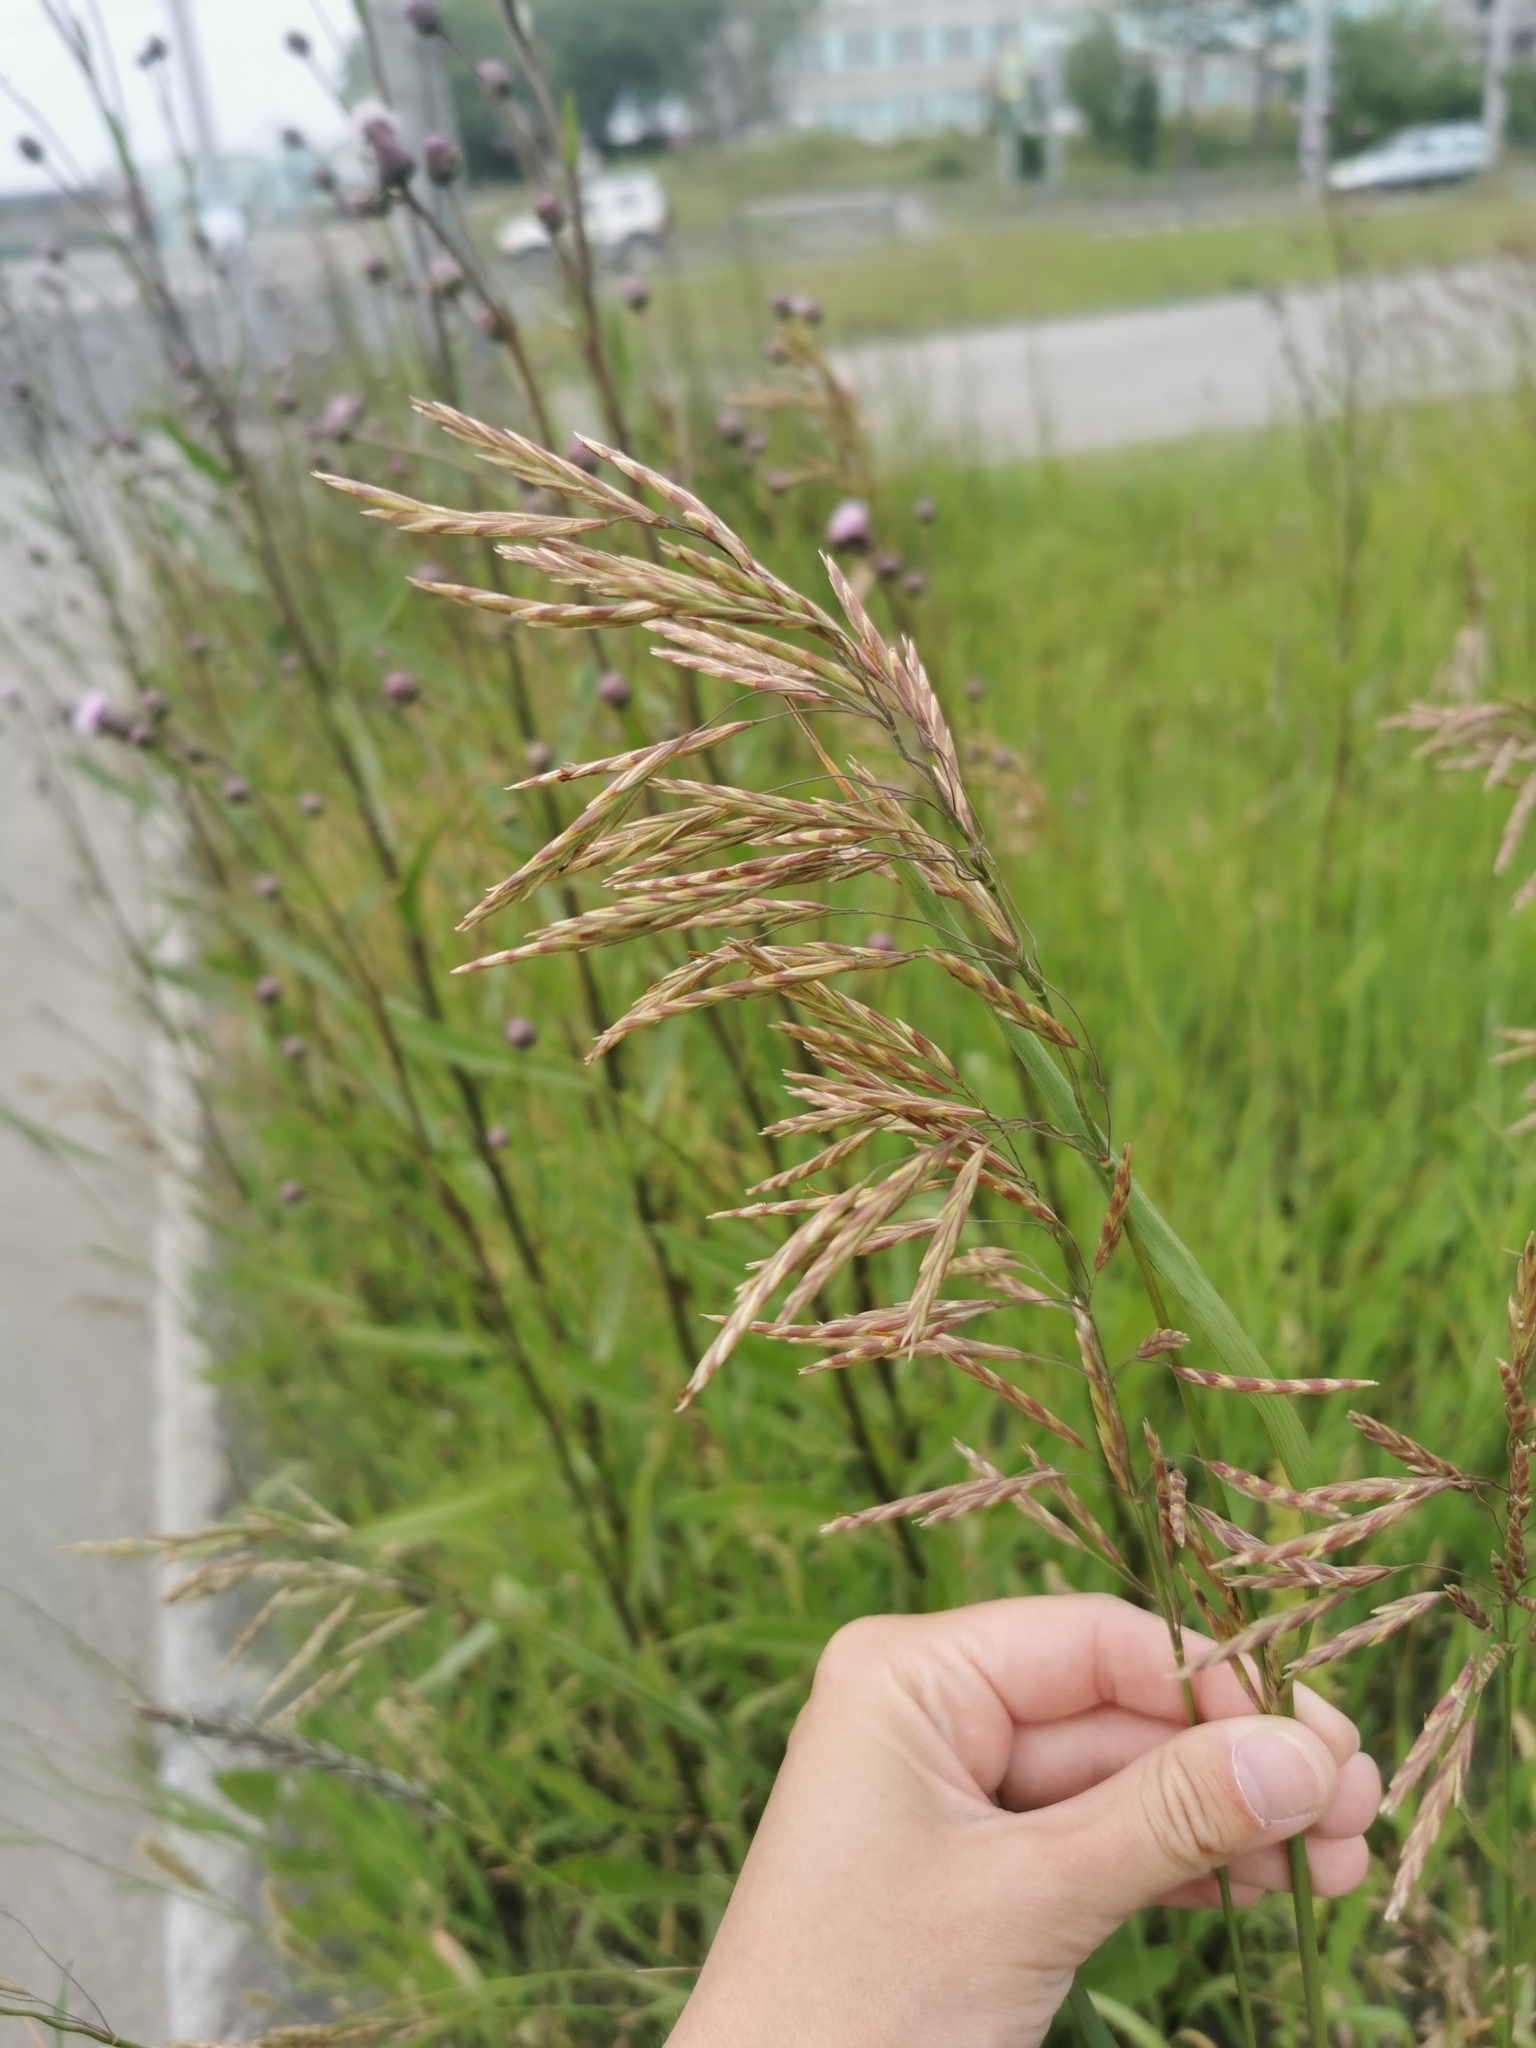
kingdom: Plantae
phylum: Tracheophyta
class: Liliopsida
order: Poales
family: Poaceae
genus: Bromus
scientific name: Bromus inermis
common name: Smooth brome
